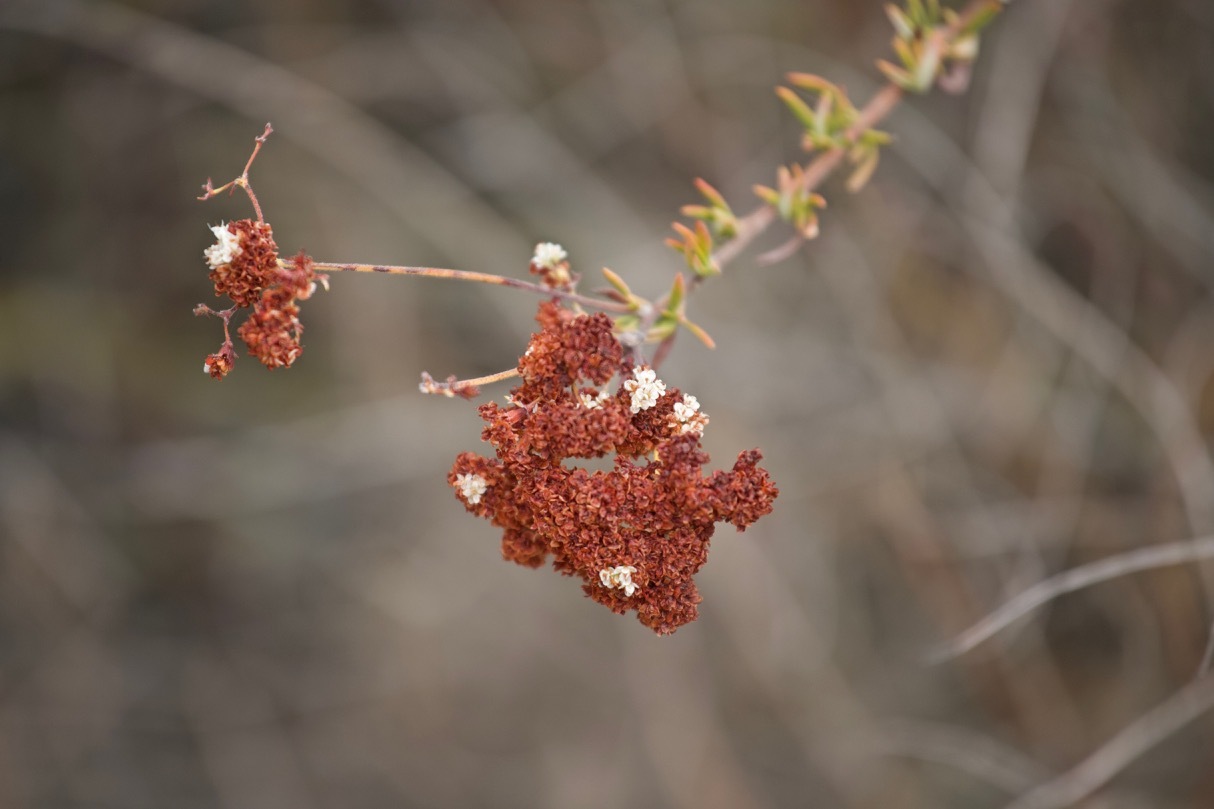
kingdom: Plantae
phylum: Tracheophyta
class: Magnoliopsida
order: Caryophyllales
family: Polygonaceae
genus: Eriogonum
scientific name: Eriogonum fasciculatum
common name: California wild buckwheat
